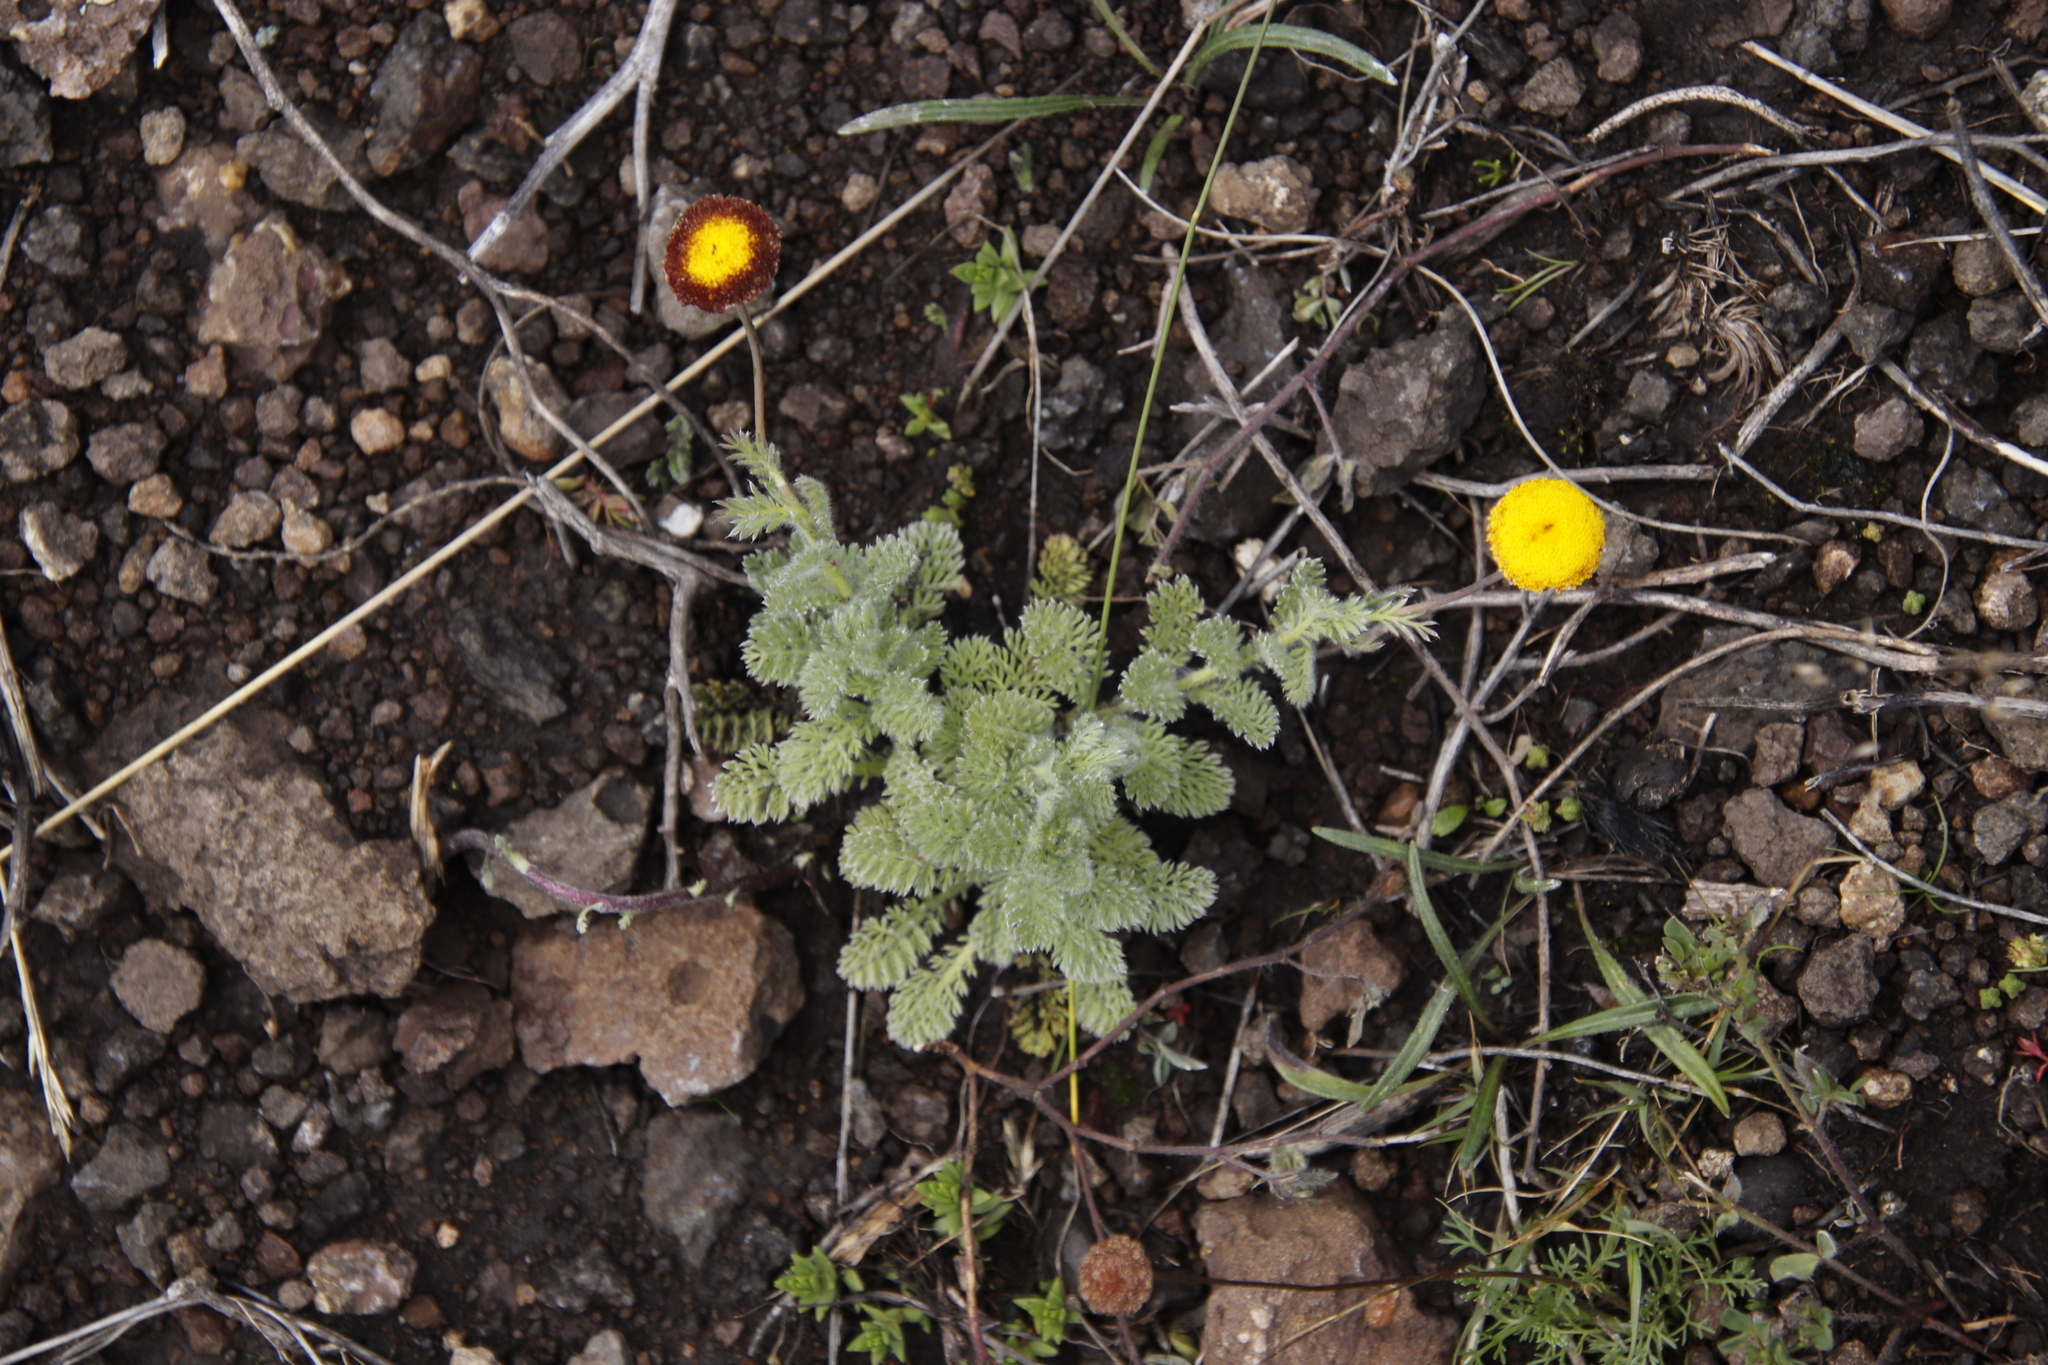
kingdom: Plantae
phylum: Tracheophyta
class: Magnoliopsida
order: Asterales
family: Asteraceae
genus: Cotula
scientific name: Cotula socialis
